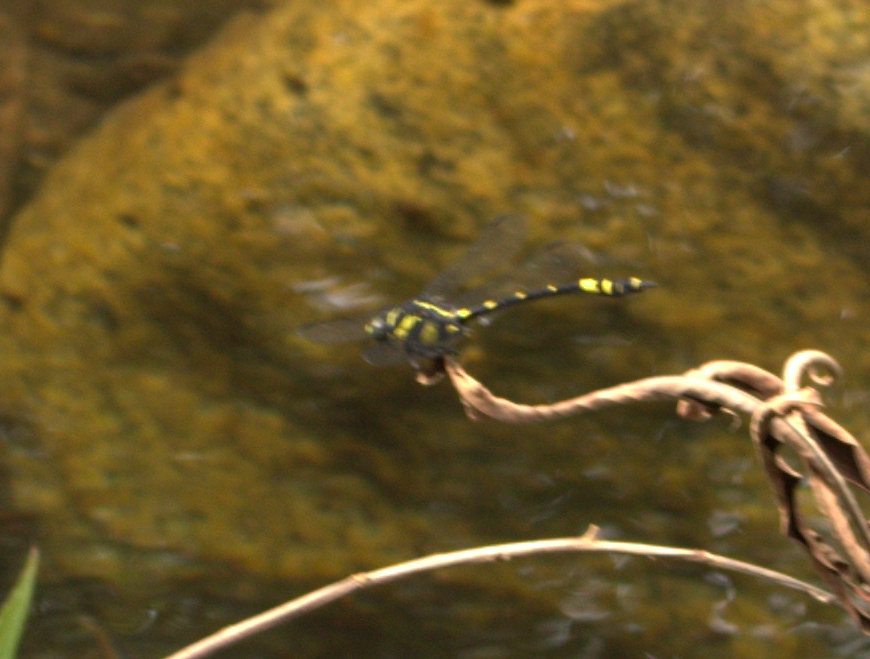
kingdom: Animalia
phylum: Arthropoda
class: Insecta
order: Odonata
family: Gomphidae
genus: Ictinogomphus
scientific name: Ictinogomphus rapax
